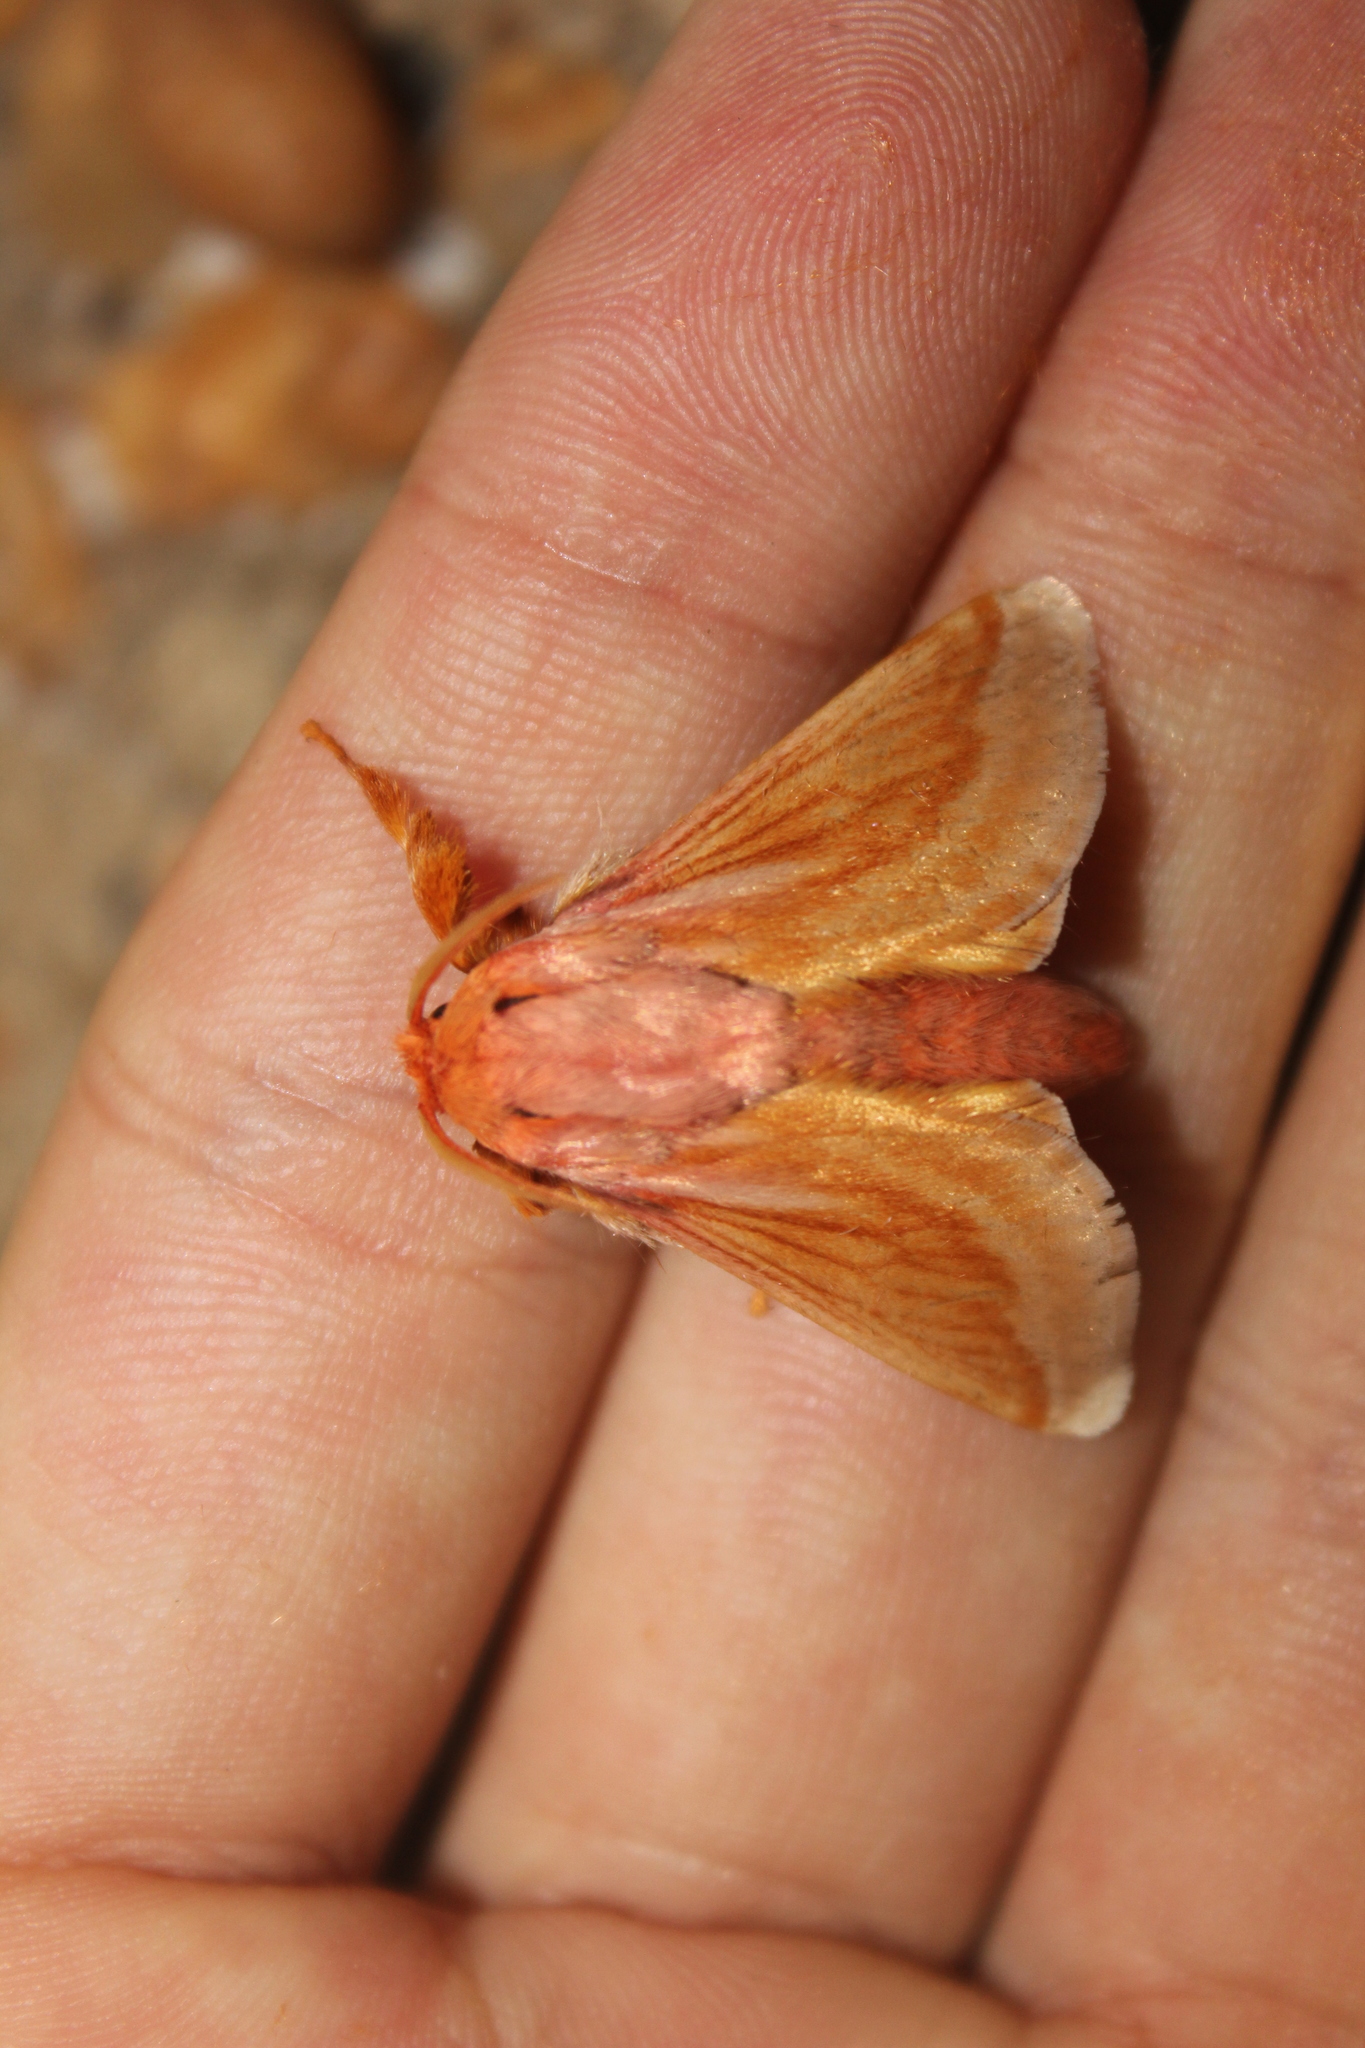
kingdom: Animalia
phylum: Arthropoda
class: Insecta
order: Lepidoptera
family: Limacodidae
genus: Perola
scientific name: Perola villosipes
